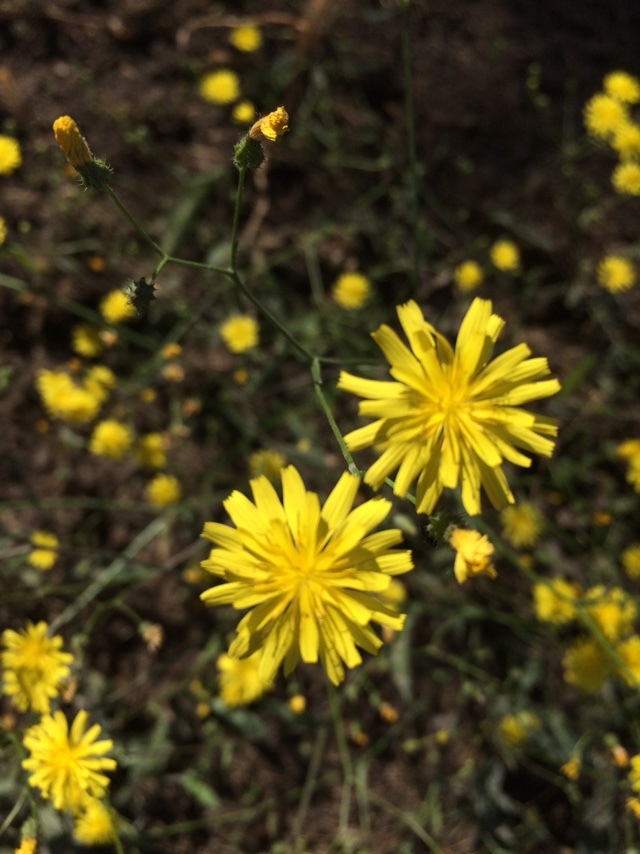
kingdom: Plantae
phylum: Tracheophyta
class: Magnoliopsida
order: Asterales
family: Asteraceae
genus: Lapsana
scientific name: Lapsana communis
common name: Nipplewort
